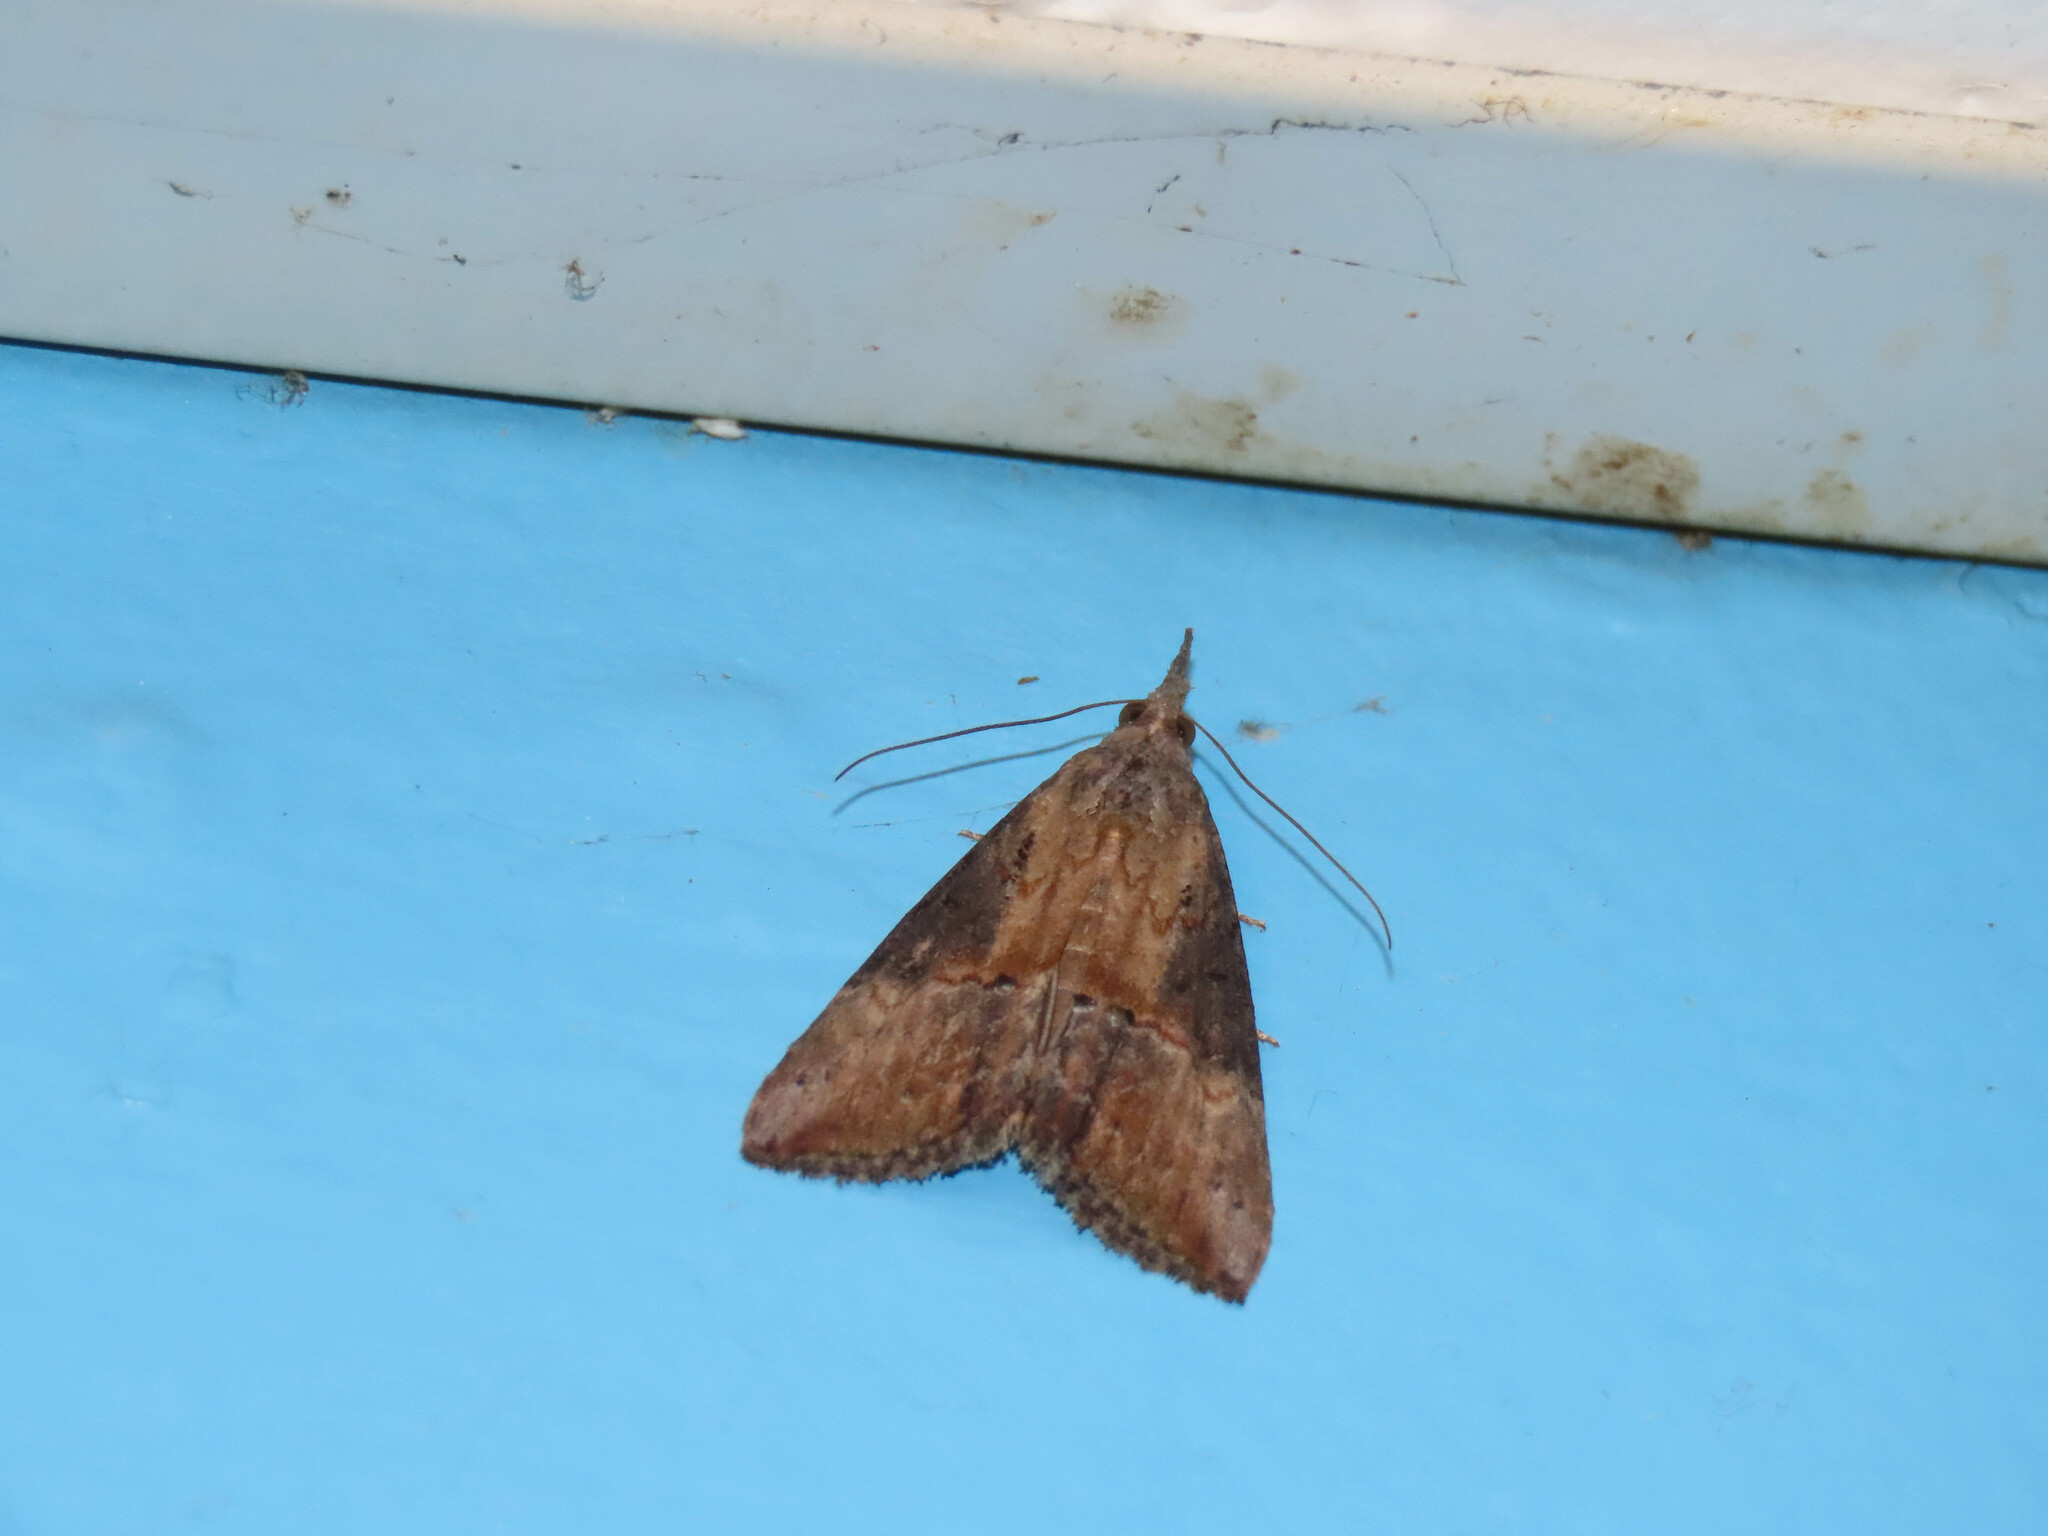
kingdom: Animalia
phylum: Arthropoda
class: Insecta
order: Lepidoptera
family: Erebidae
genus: Hypena
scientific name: Hypena scabra
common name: Green cloverworm
